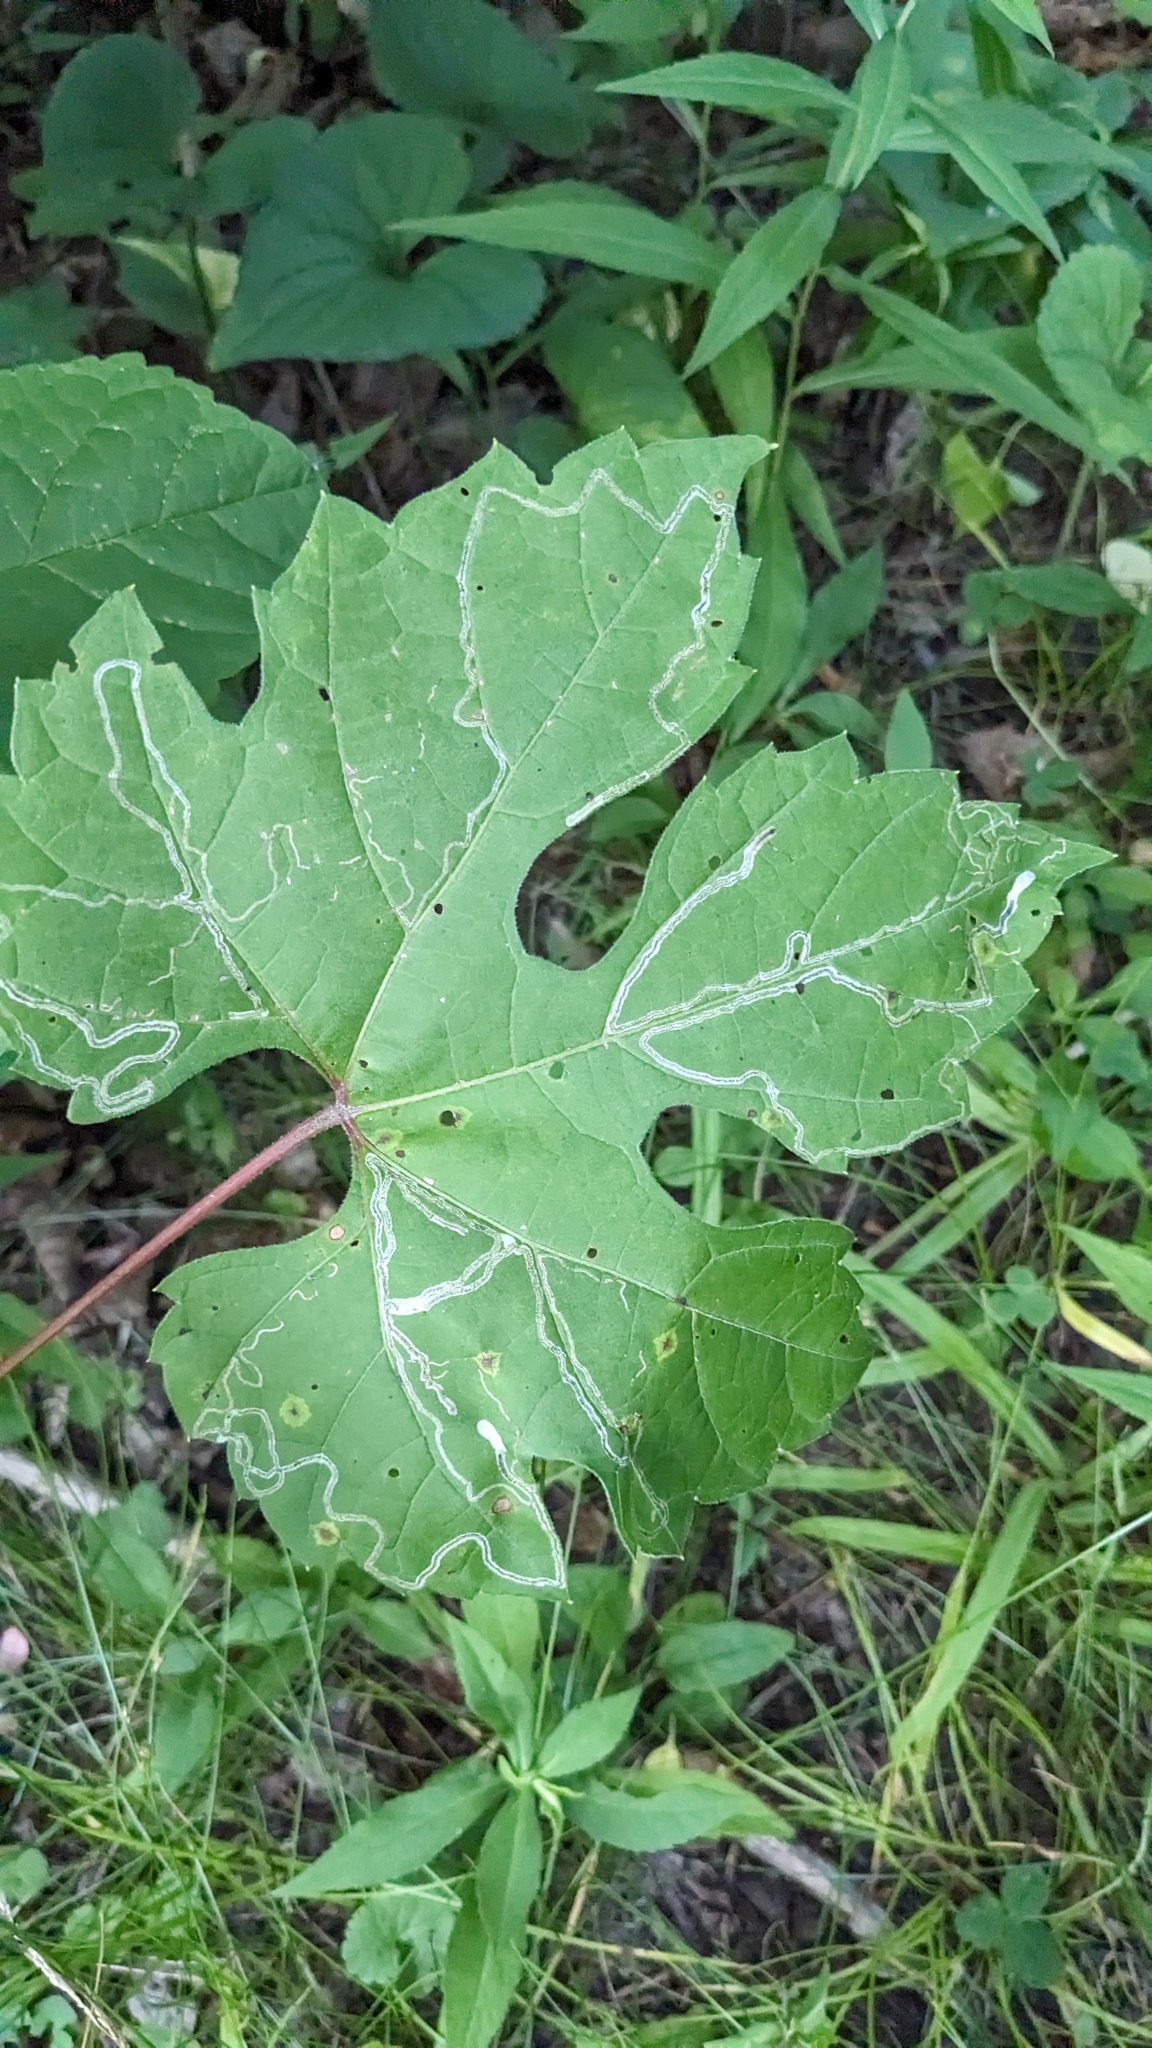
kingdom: Animalia
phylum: Arthropoda
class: Insecta
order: Lepidoptera
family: Gracillariidae
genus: Phyllocnistis
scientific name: Phyllocnistis vitifoliella
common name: Grape leaf-miner moth
